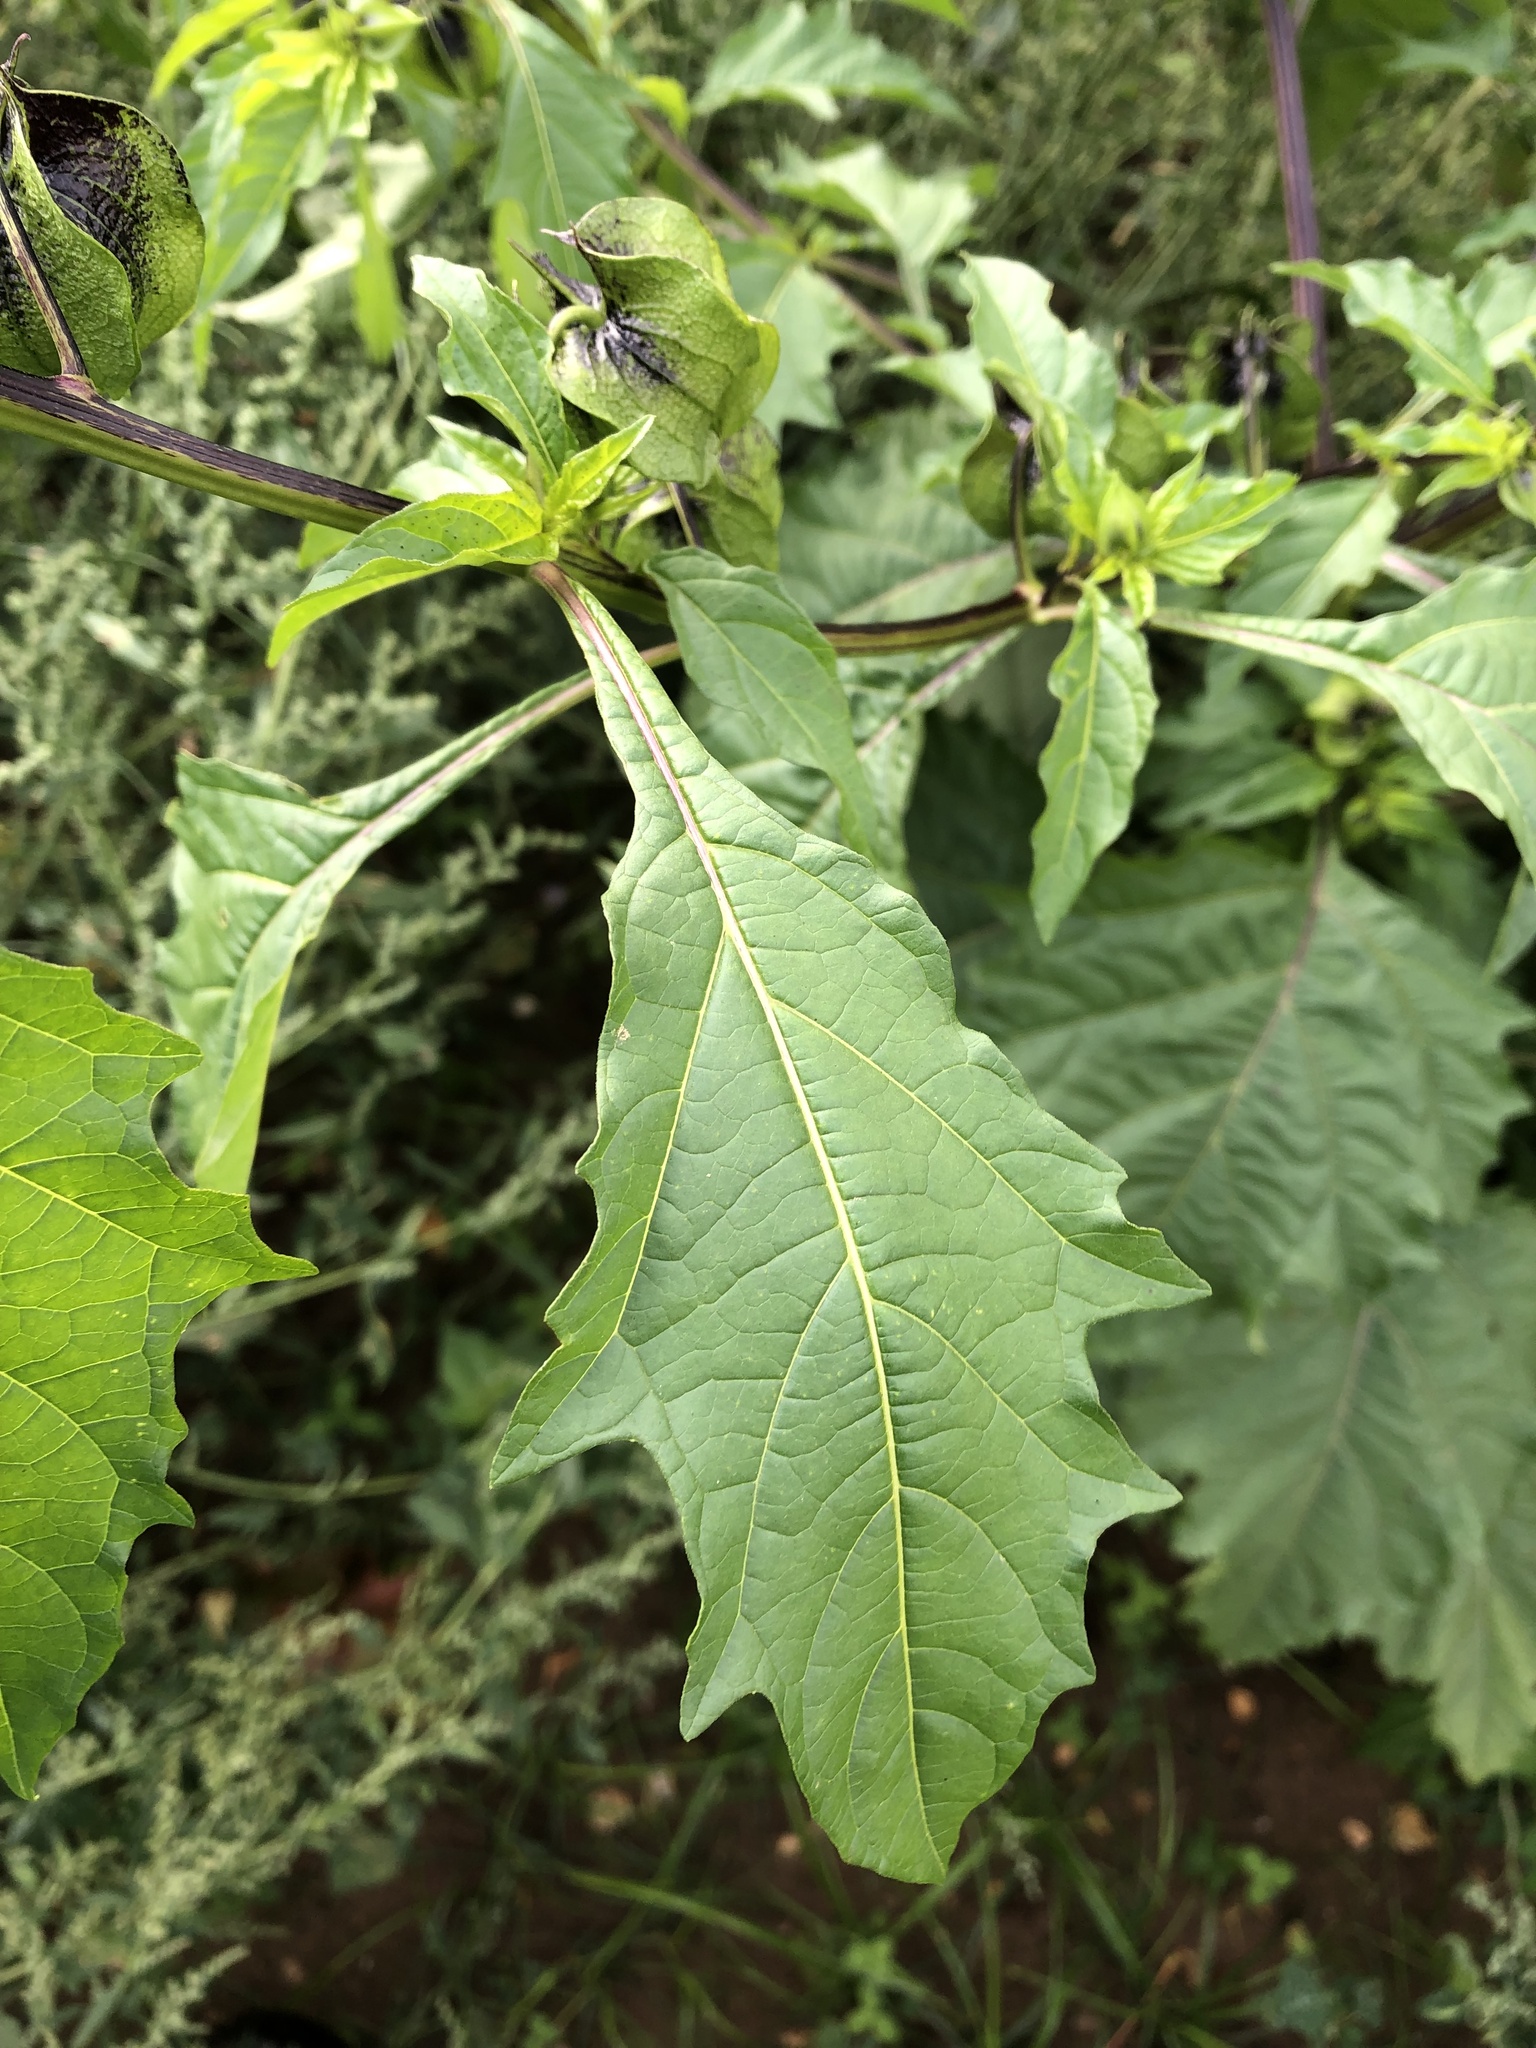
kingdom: Plantae
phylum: Tracheophyta
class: Magnoliopsida
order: Solanales
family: Solanaceae
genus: Nicandra
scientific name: Nicandra physalodes
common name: Apple-of-peru
